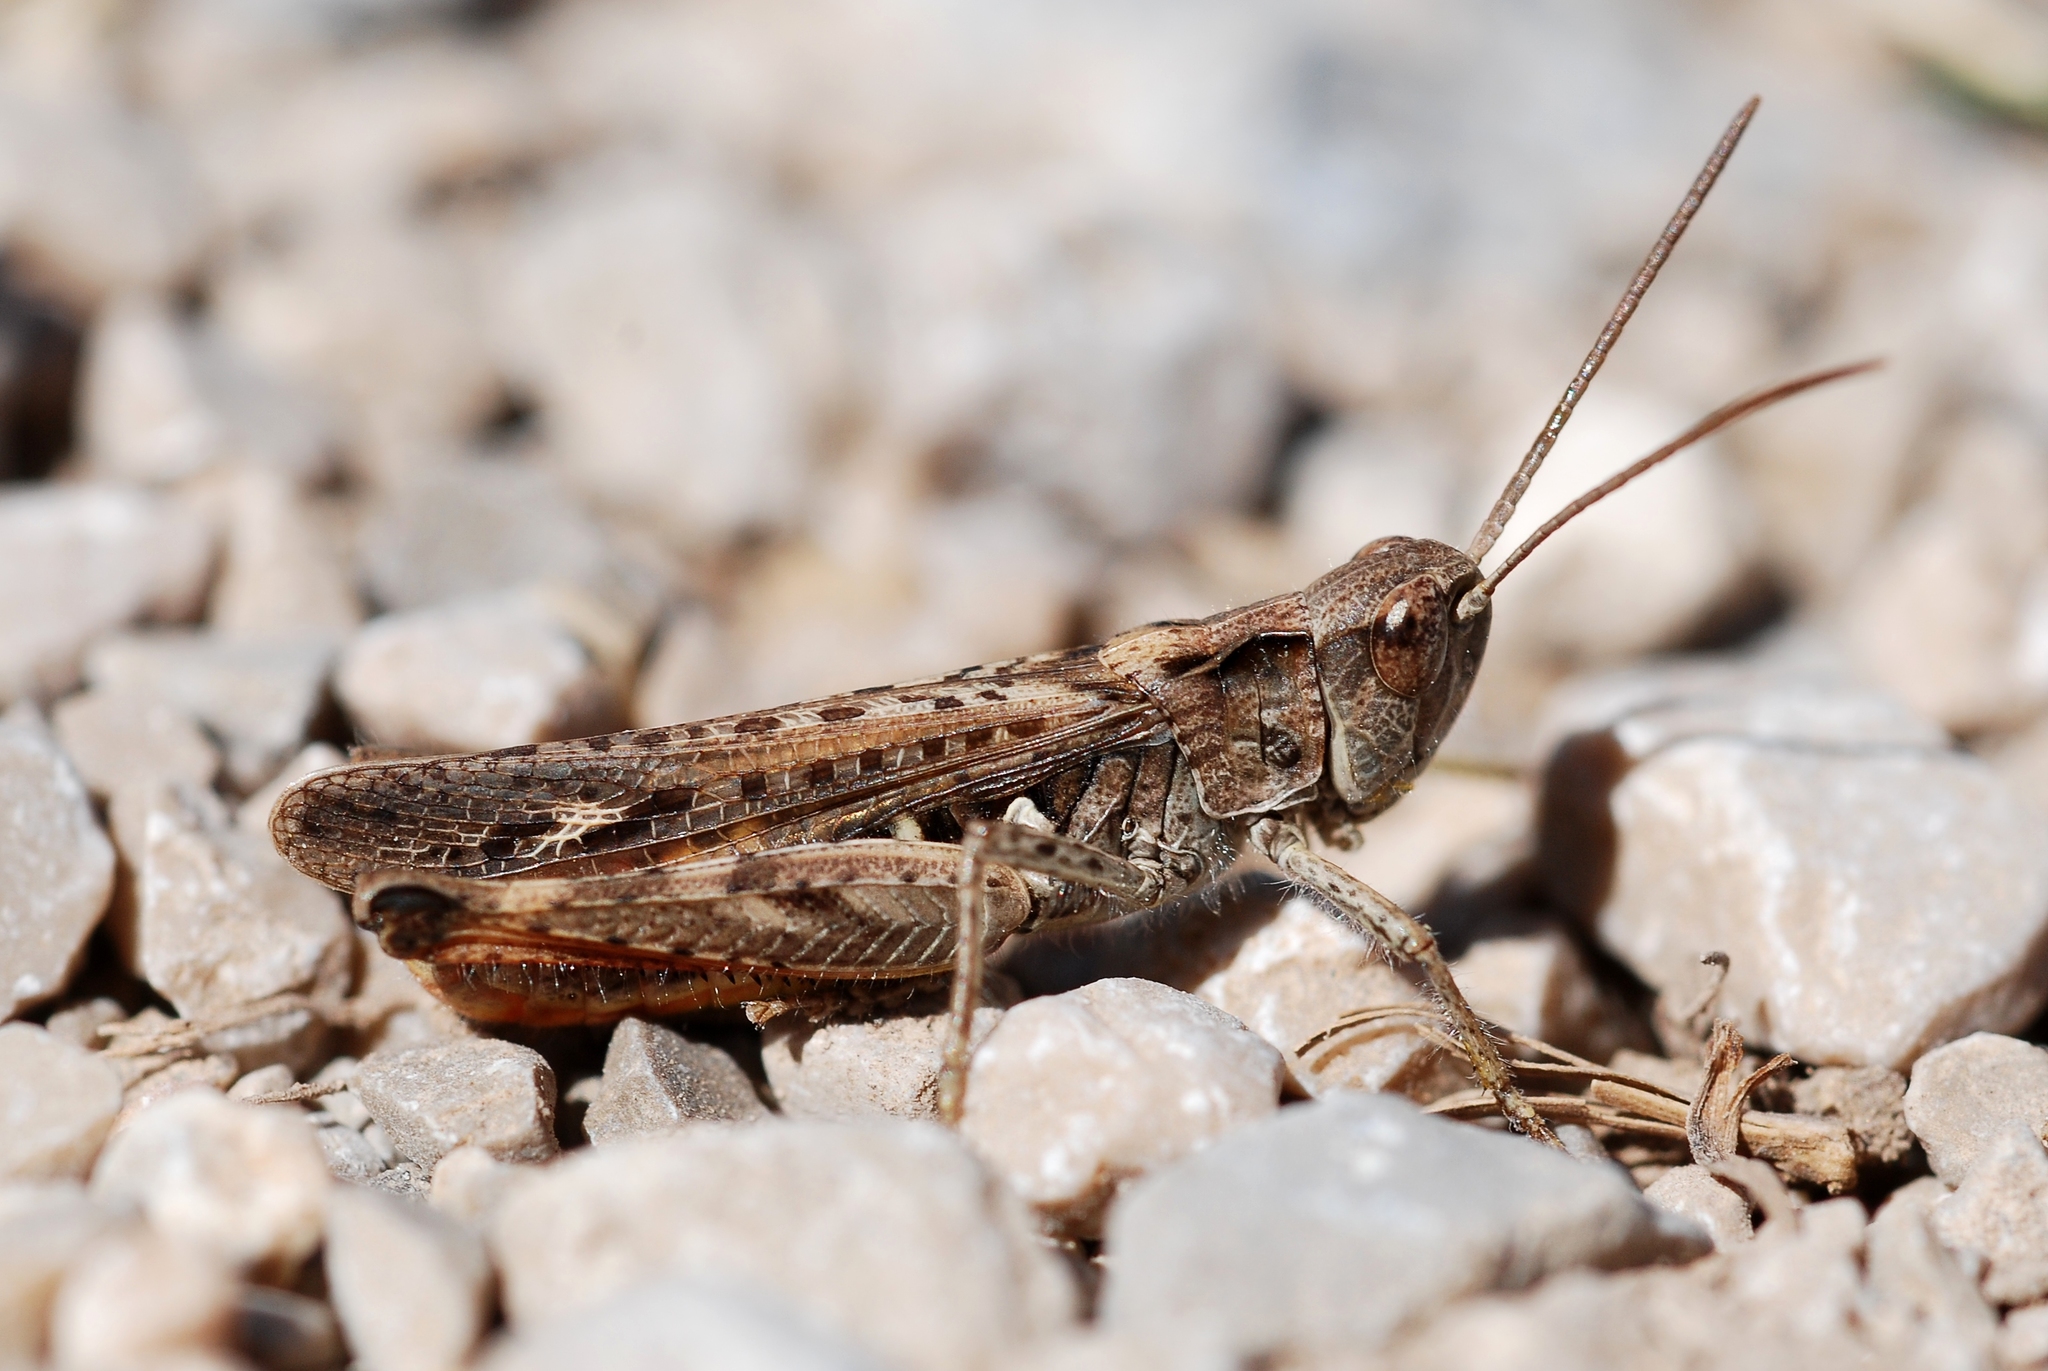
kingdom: Animalia
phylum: Arthropoda
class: Insecta
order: Orthoptera
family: Acrididae
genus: Chorthippus
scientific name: Chorthippus mollis
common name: Lesser field grasshopper
